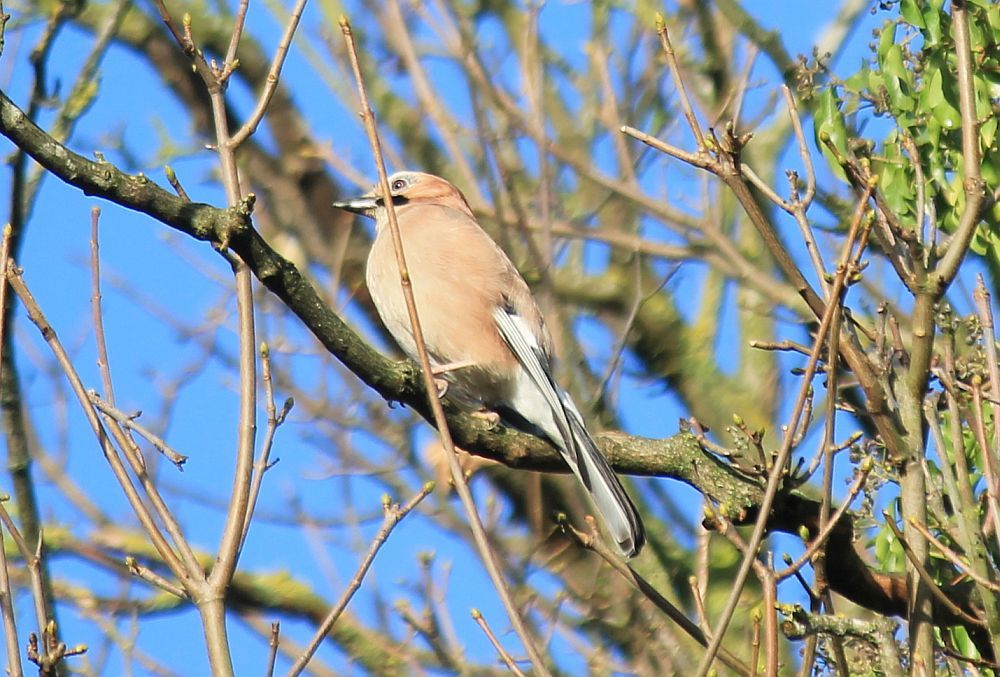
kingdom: Animalia
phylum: Chordata
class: Aves
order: Passeriformes
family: Corvidae
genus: Garrulus
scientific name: Garrulus glandarius
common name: Eurasian jay
